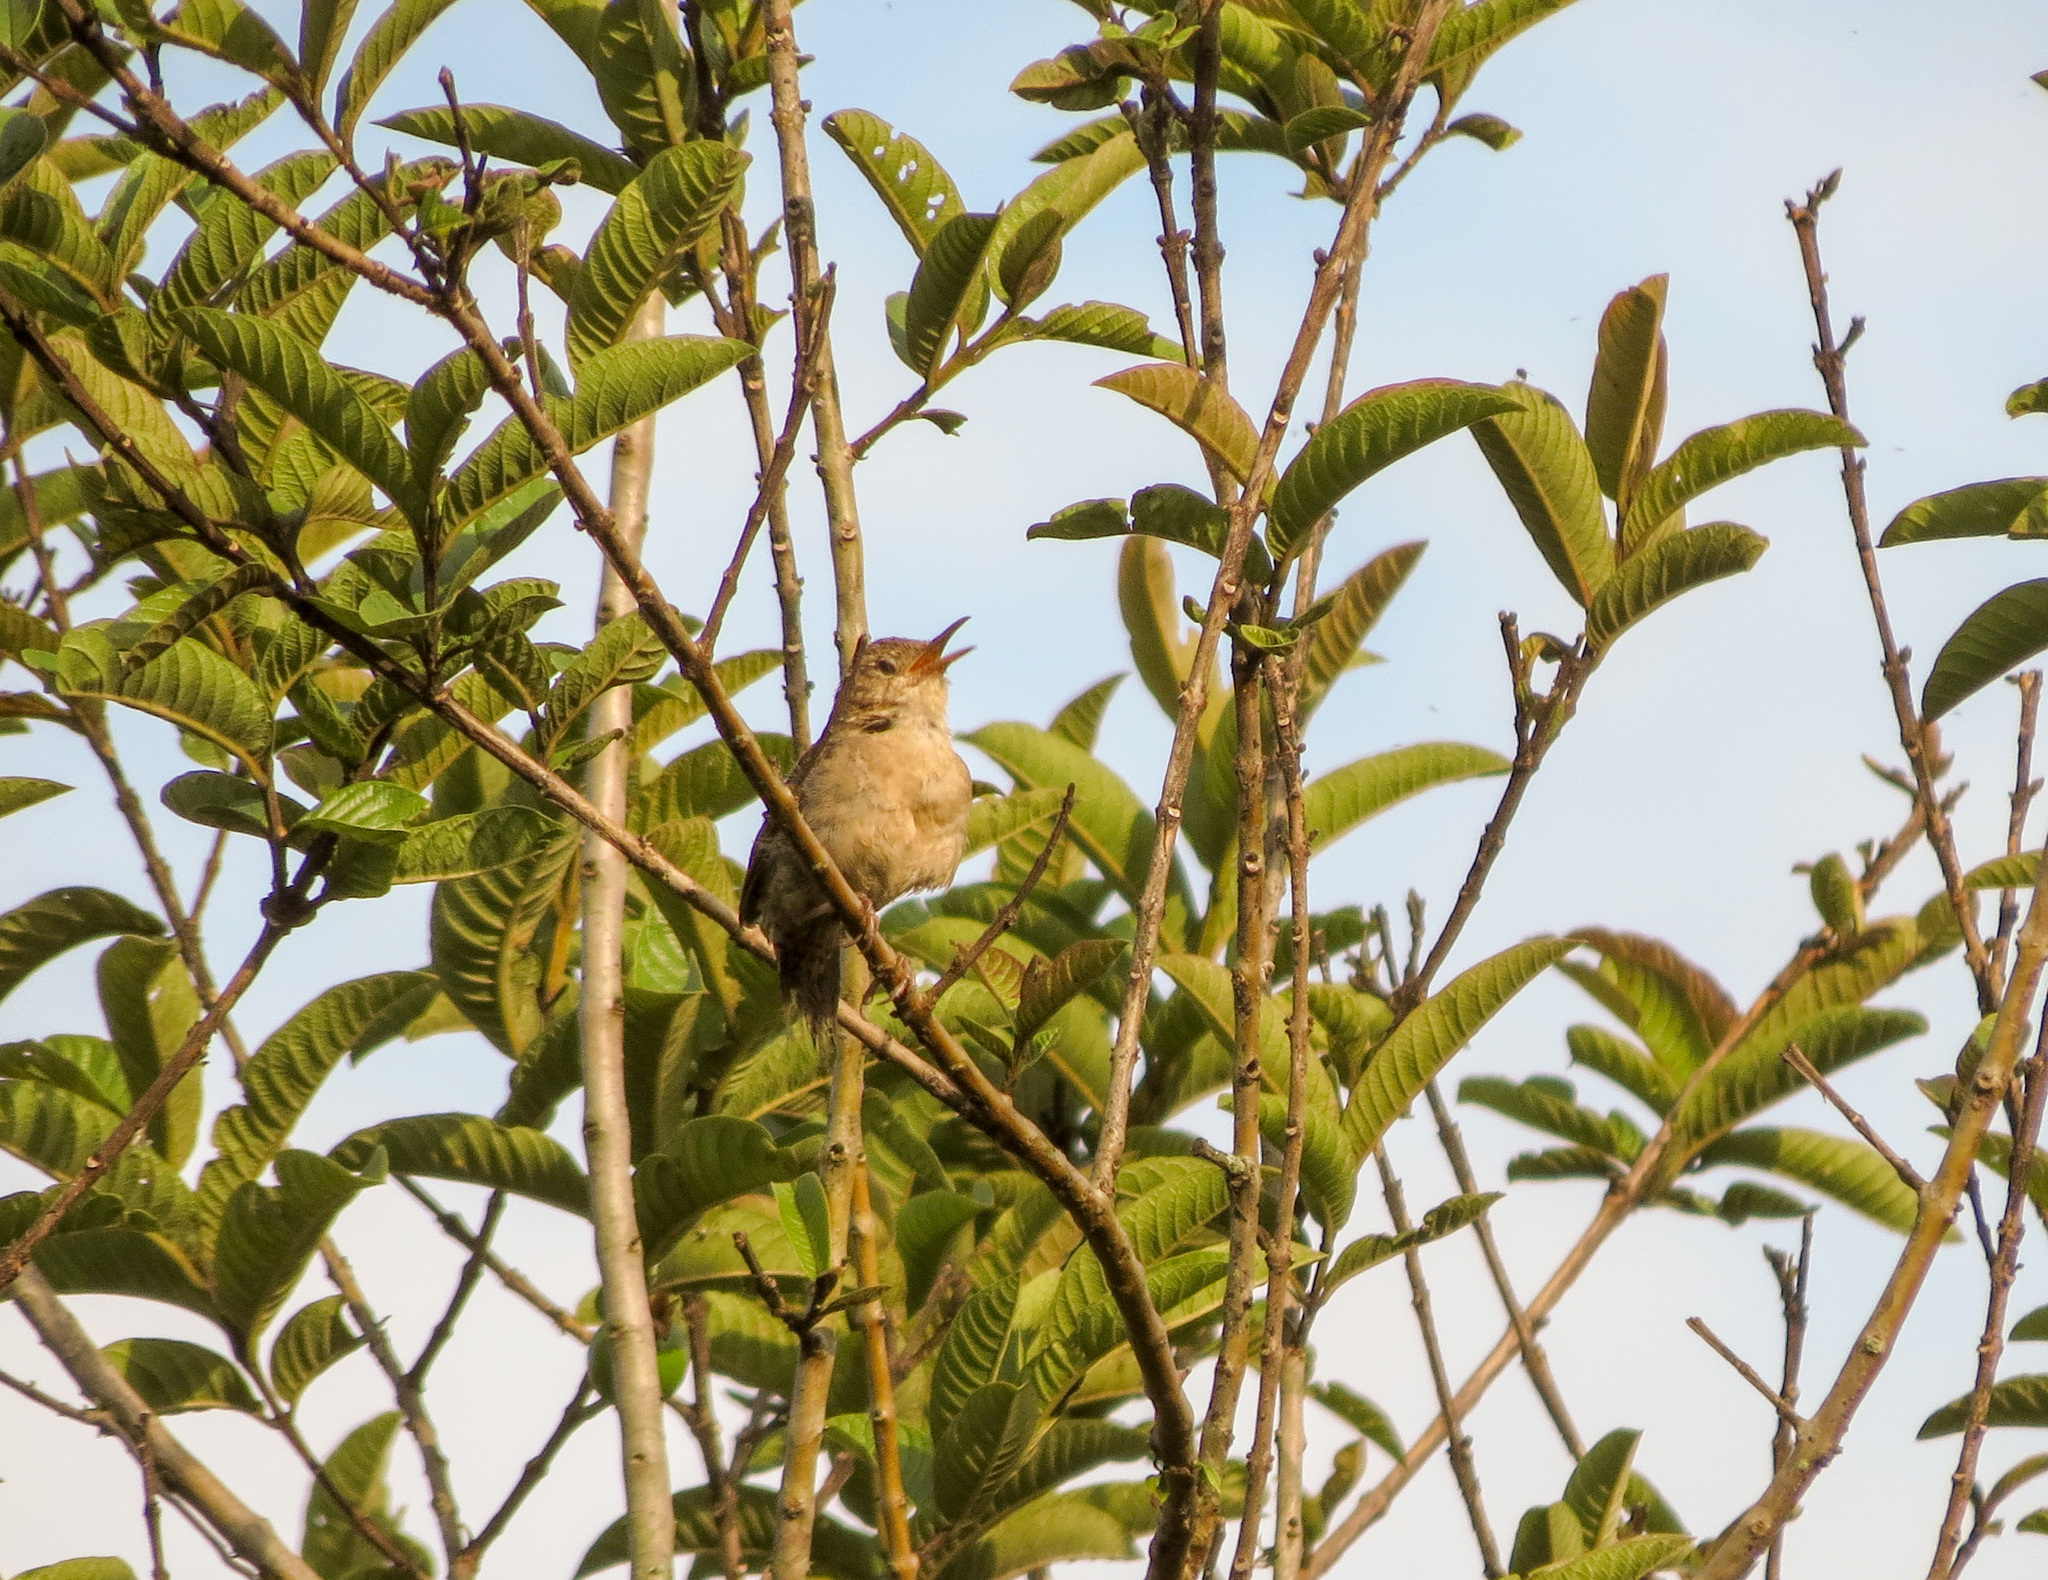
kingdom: Animalia
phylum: Chordata
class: Aves
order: Passeriformes
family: Troglodytidae
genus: Troglodytes
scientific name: Troglodytes aedon
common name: House wren
